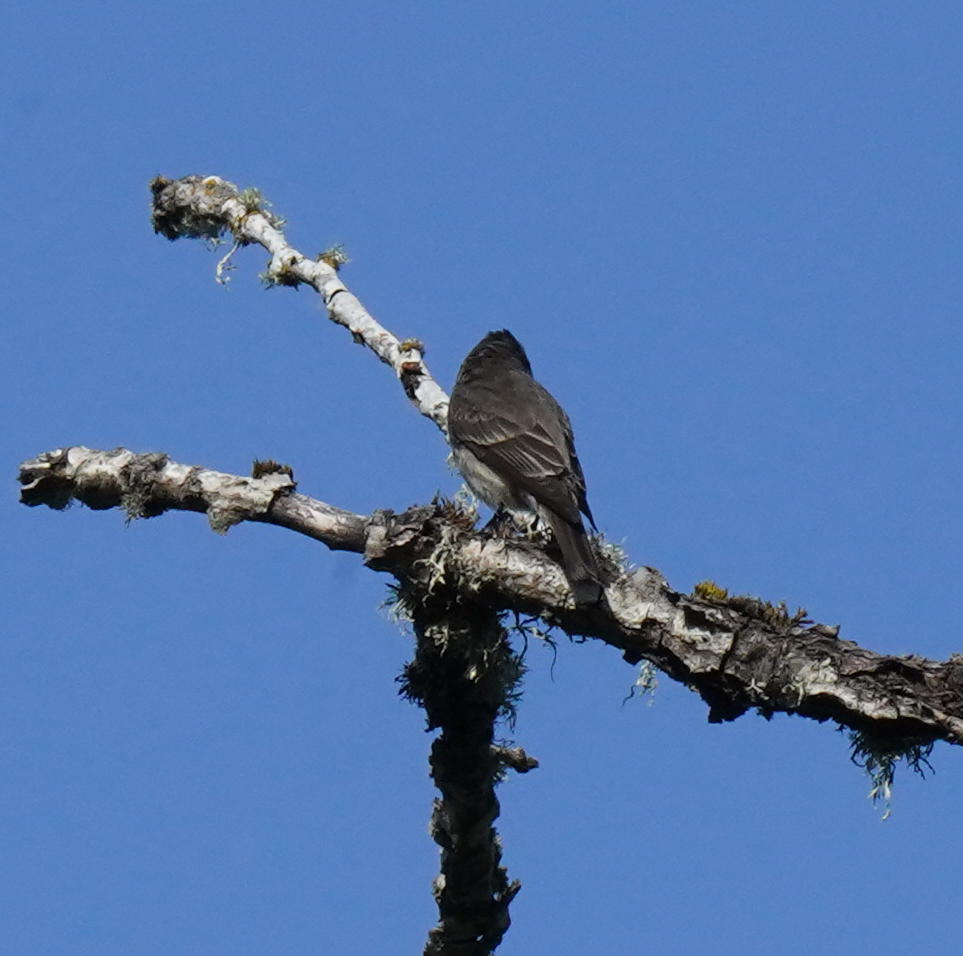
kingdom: Animalia
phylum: Chordata
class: Aves
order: Passeriformes
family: Tyrannidae
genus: Contopus
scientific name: Contopus sordidulus
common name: Western wood-pewee
